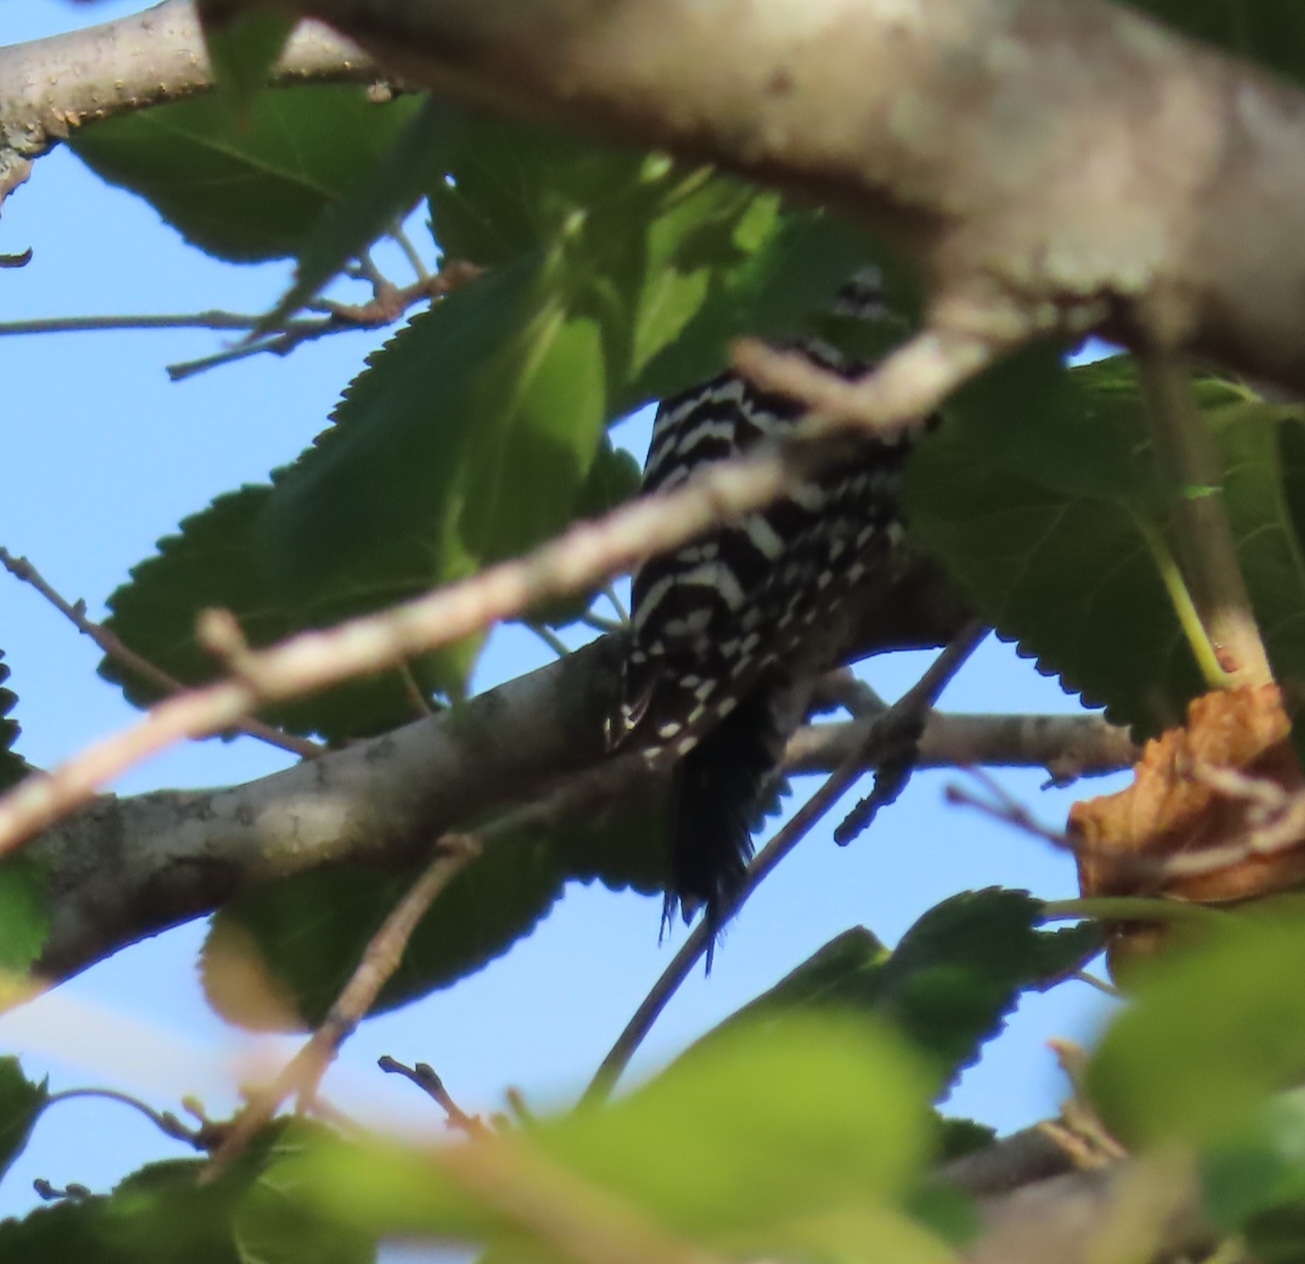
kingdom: Animalia
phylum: Chordata
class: Aves
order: Piciformes
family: Picidae
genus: Dryobates
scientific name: Dryobates scalaris
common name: Ladder-backed woodpecker
